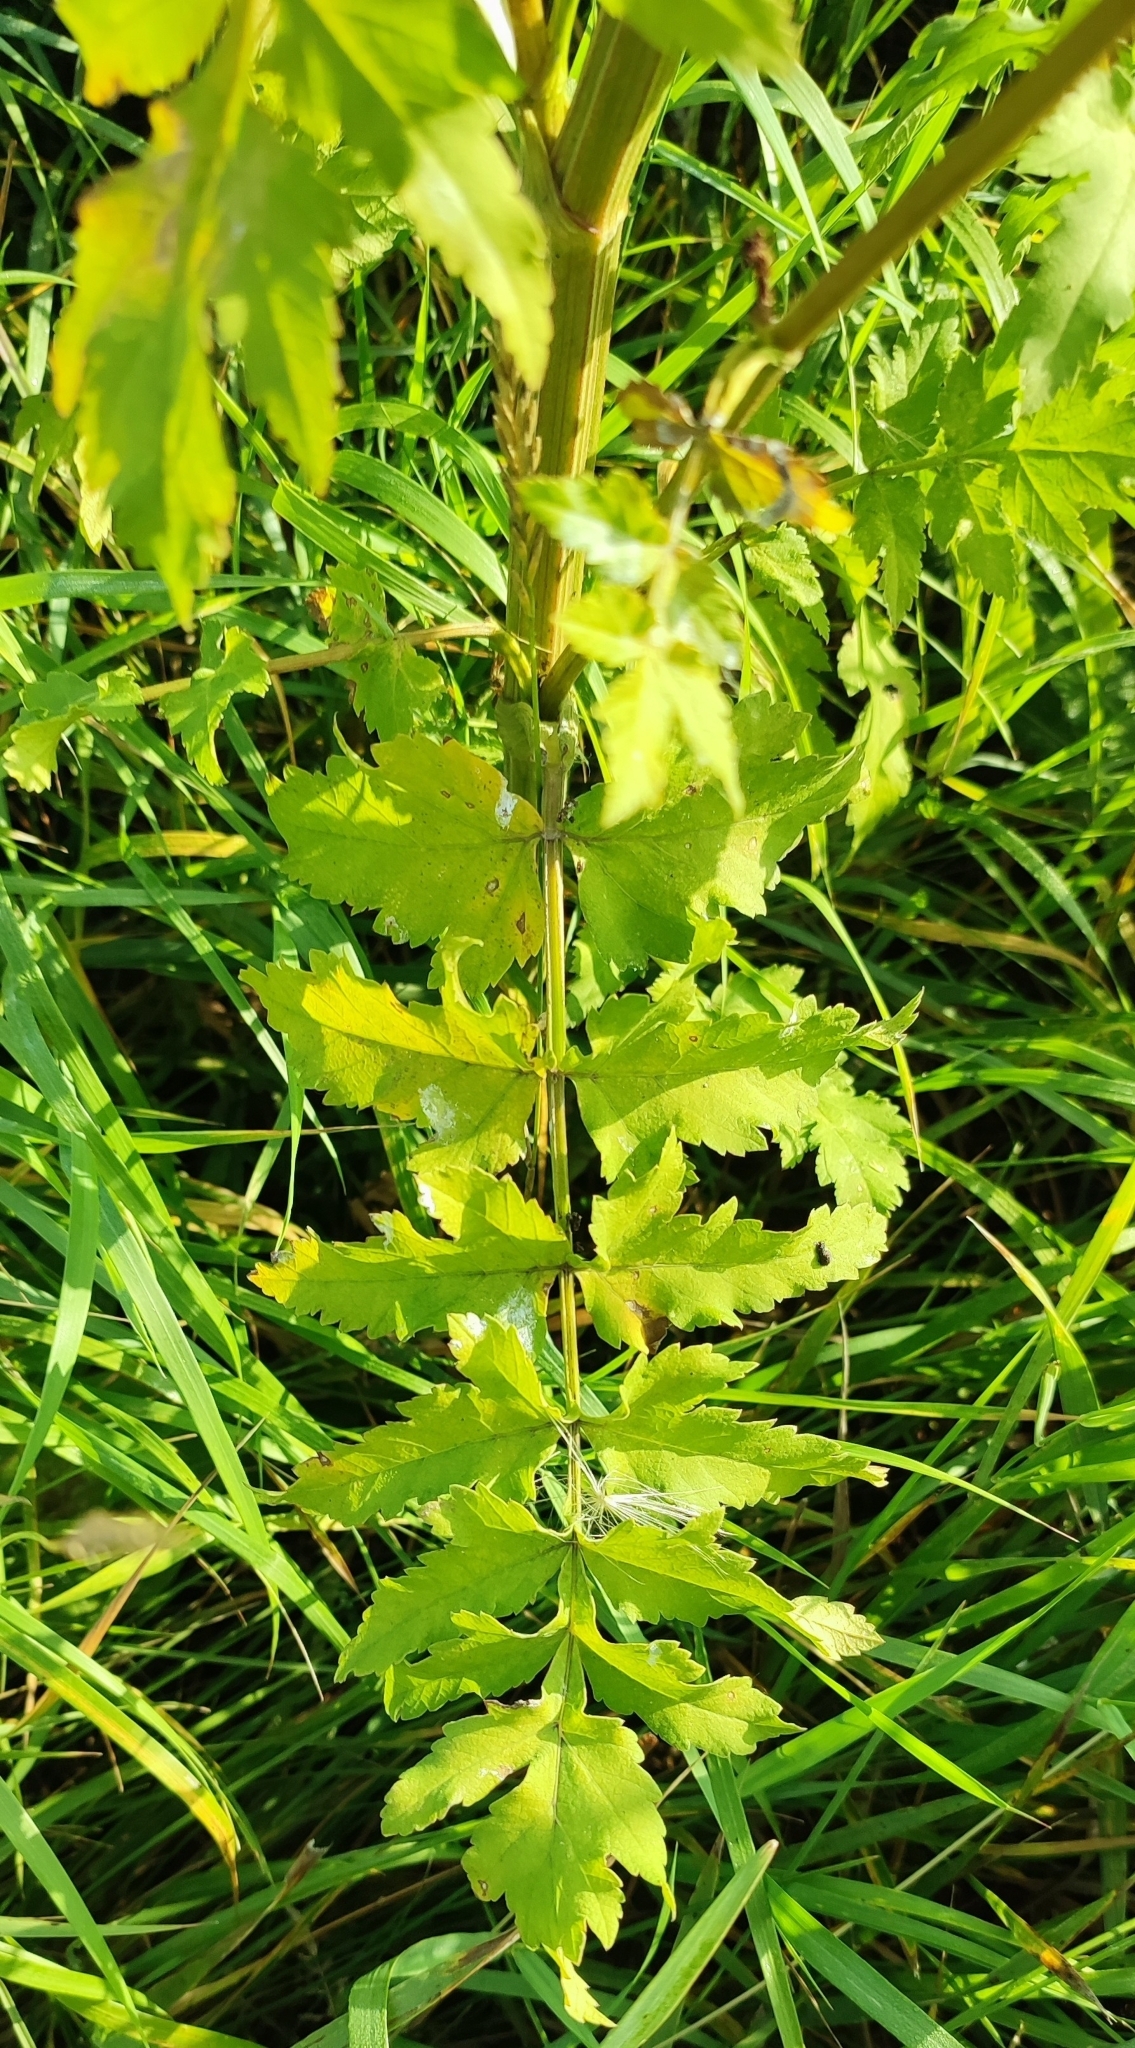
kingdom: Plantae
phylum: Tracheophyta
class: Magnoliopsida
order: Apiales
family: Apiaceae
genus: Pastinaca
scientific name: Pastinaca sativa
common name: Wild parsnip
